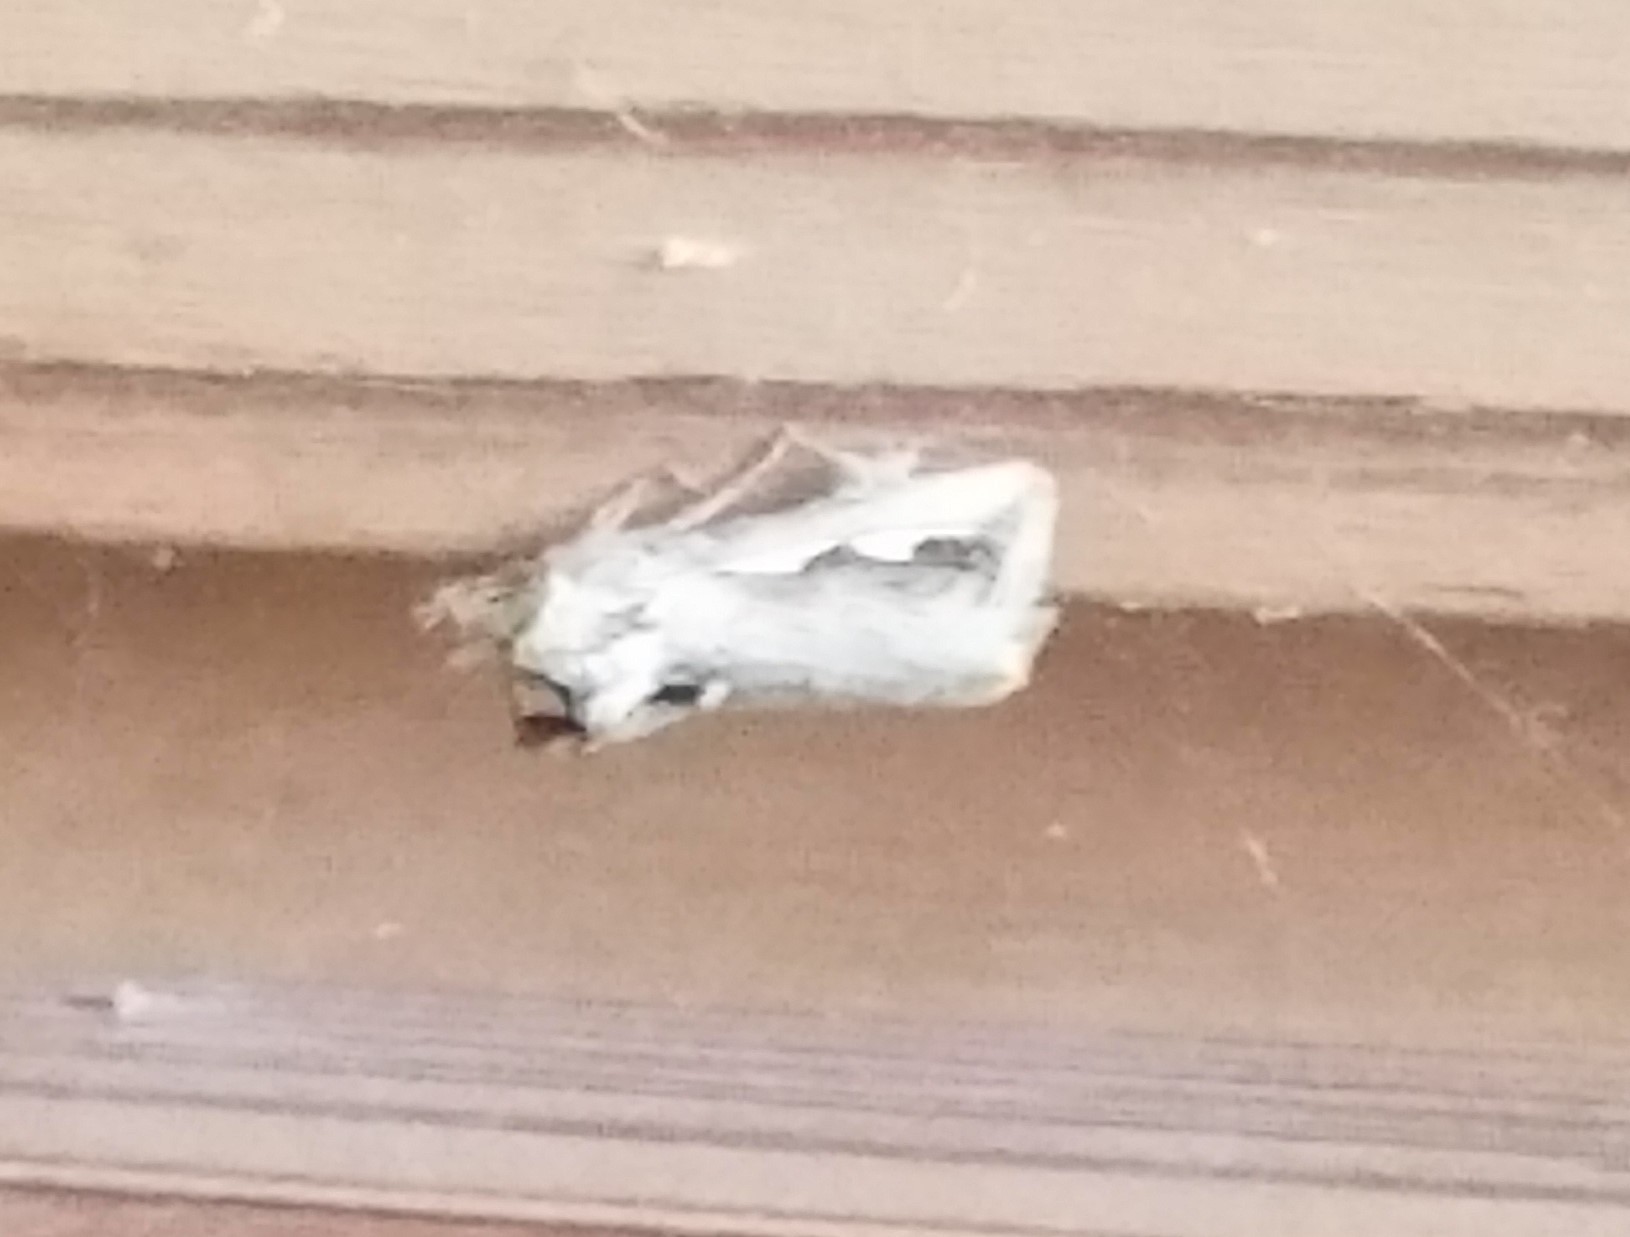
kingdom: Animalia
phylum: Arthropoda
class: Insecta
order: Lepidoptera
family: Notodontidae
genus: Didugua
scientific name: Didugua argentilinea
